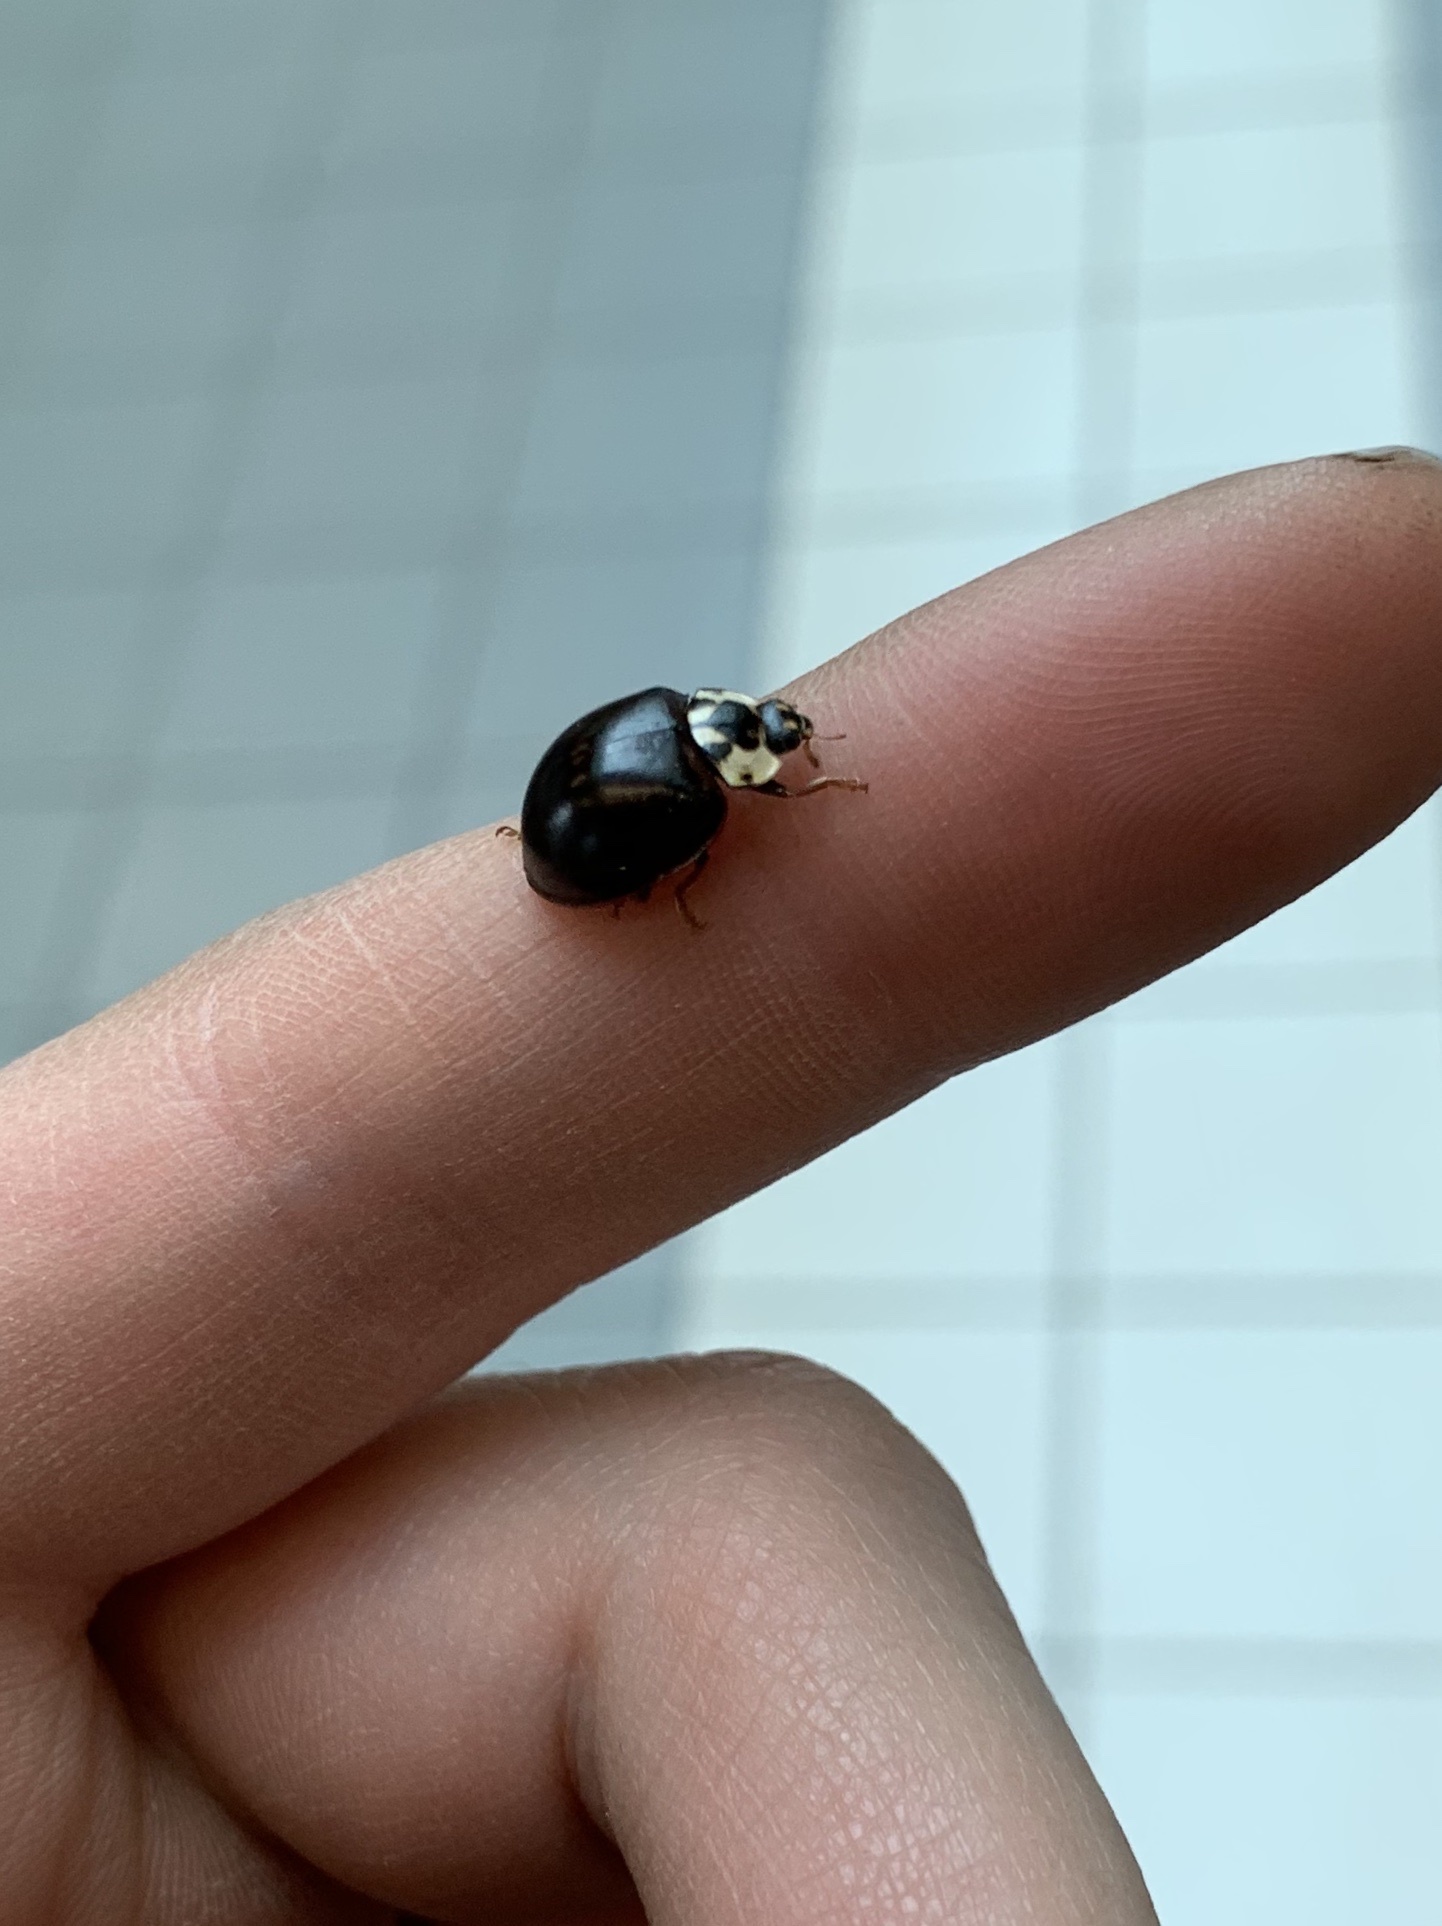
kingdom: Animalia
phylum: Arthropoda
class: Insecta
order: Coleoptera
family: Coccinellidae
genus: Anatis
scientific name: Anatis labiculata
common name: Fifteen-spotted lady beetle
